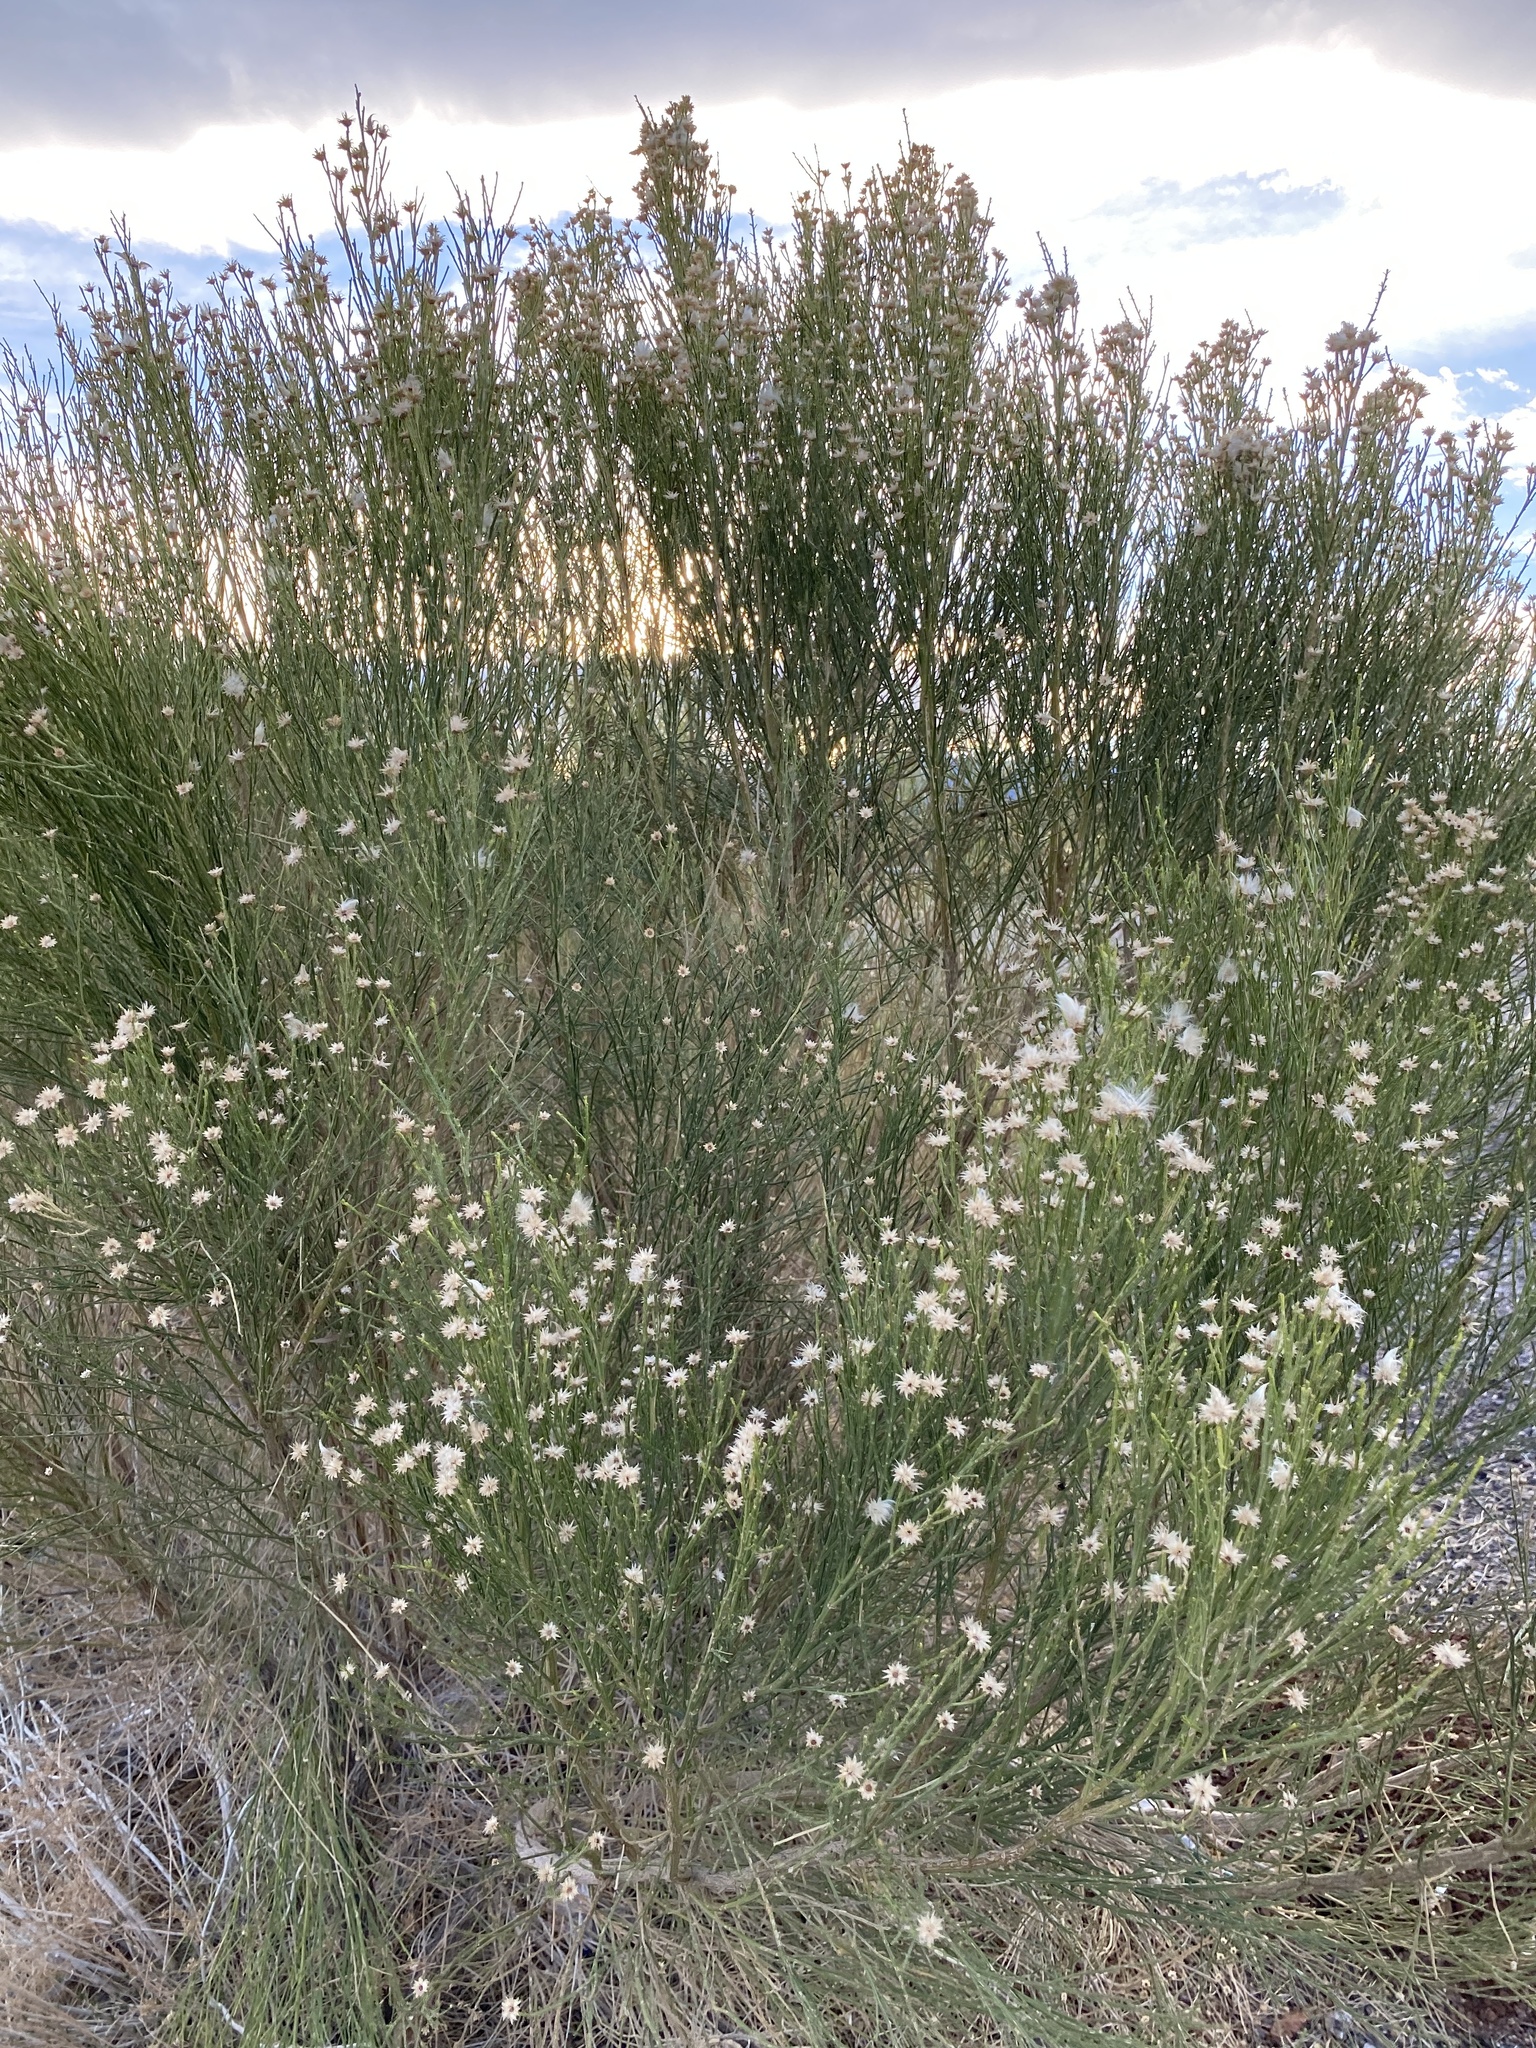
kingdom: Plantae
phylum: Tracheophyta
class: Magnoliopsida
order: Asterales
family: Asteraceae
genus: Baccharis
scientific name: Baccharis sarothroides
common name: Desert-broom
